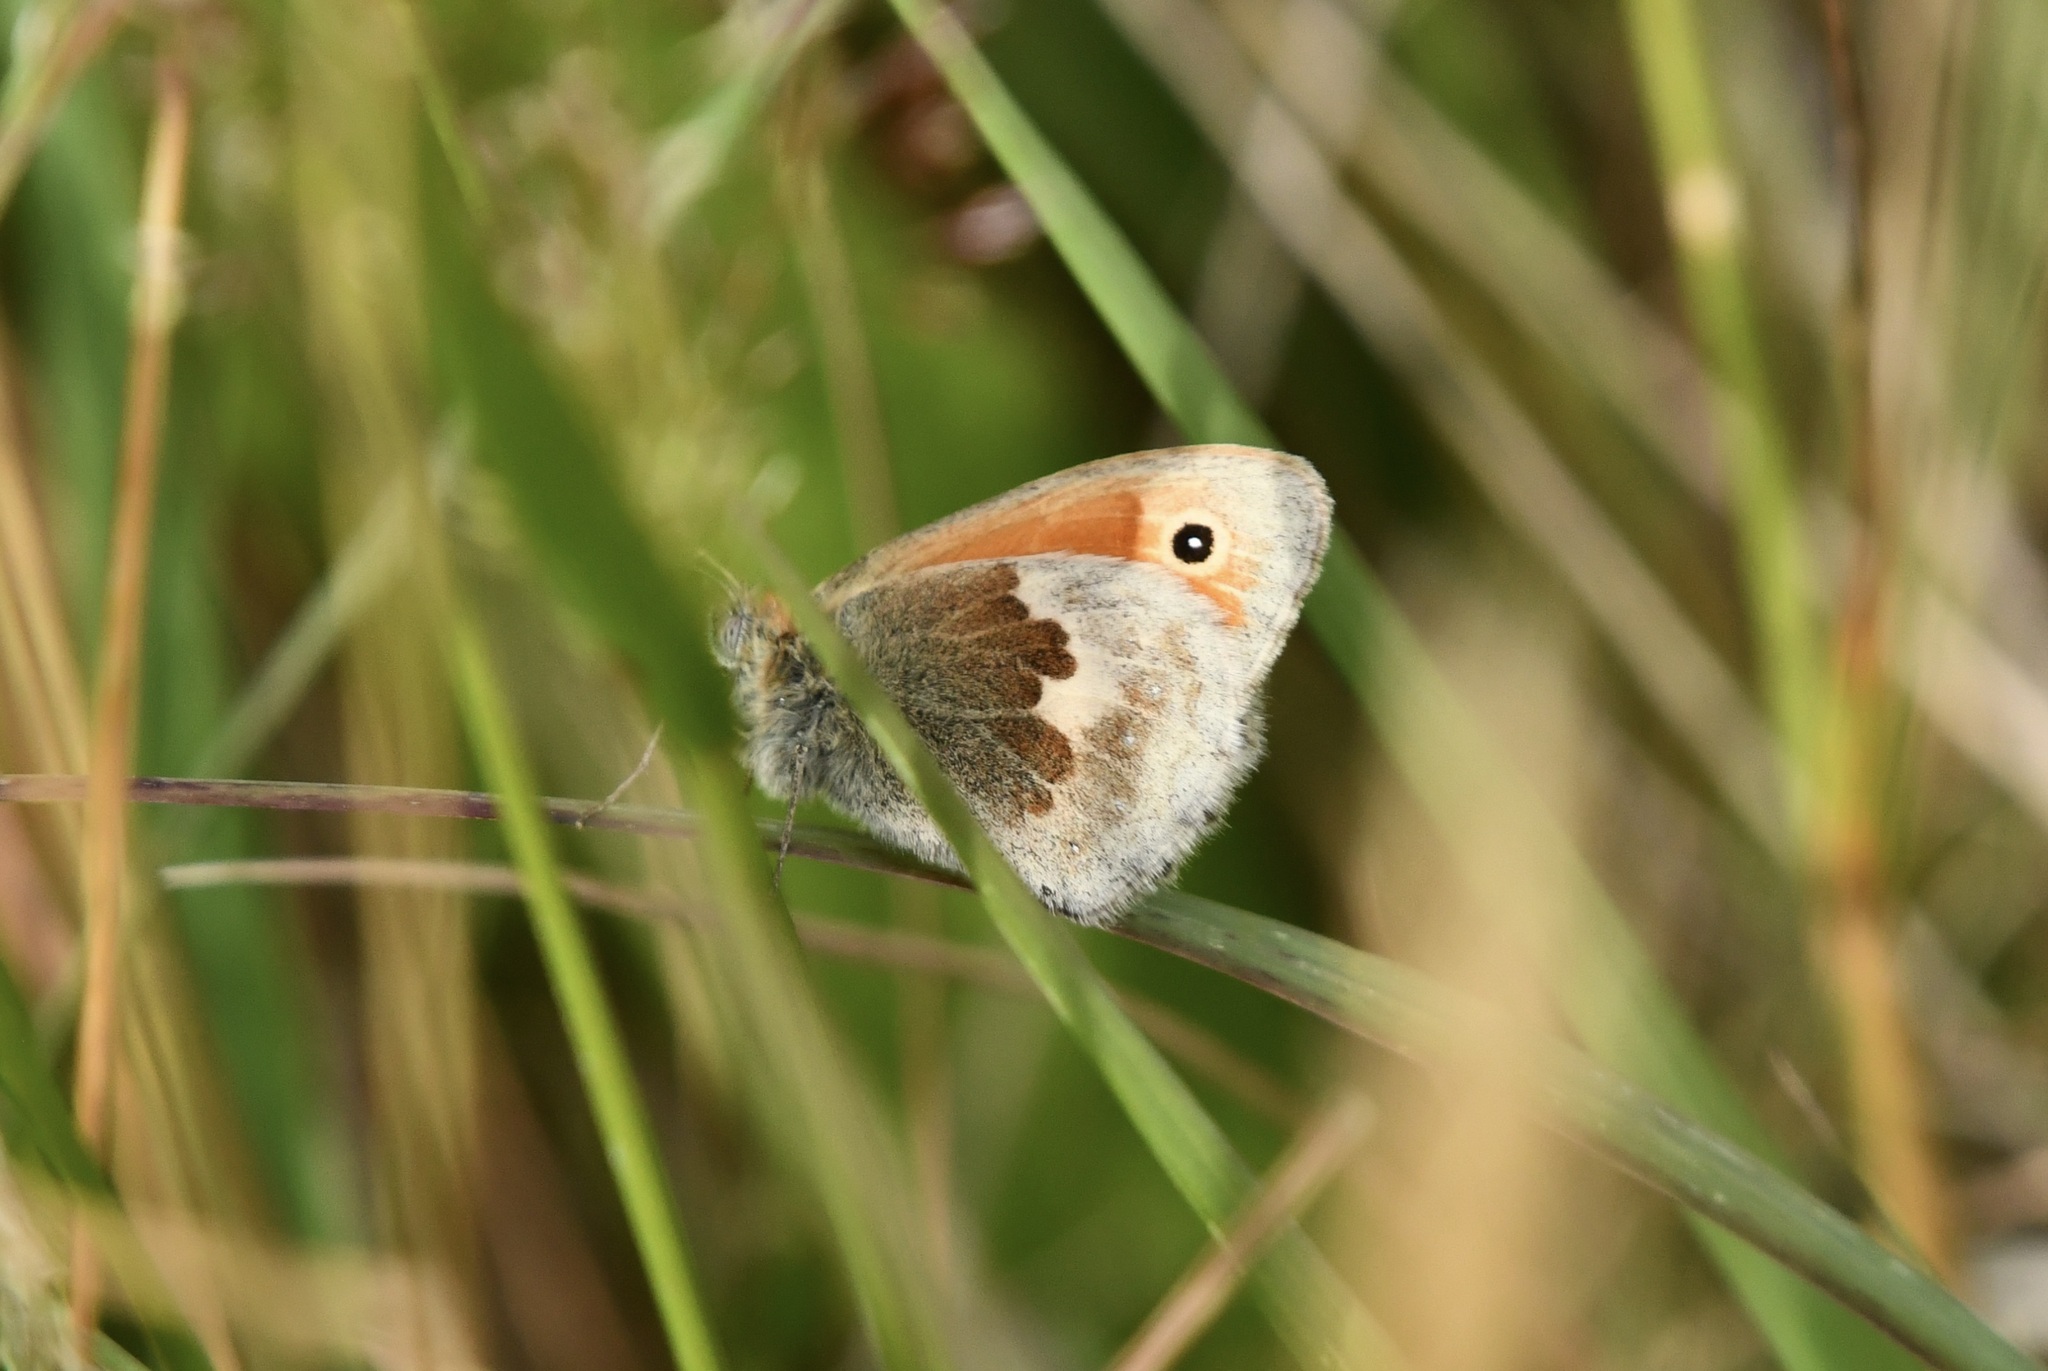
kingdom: Animalia
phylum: Arthropoda
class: Insecta
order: Lepidoptera
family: Nymphalidae
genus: Coenonympha
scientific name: Coenonympha pamphilus
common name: Small heath
